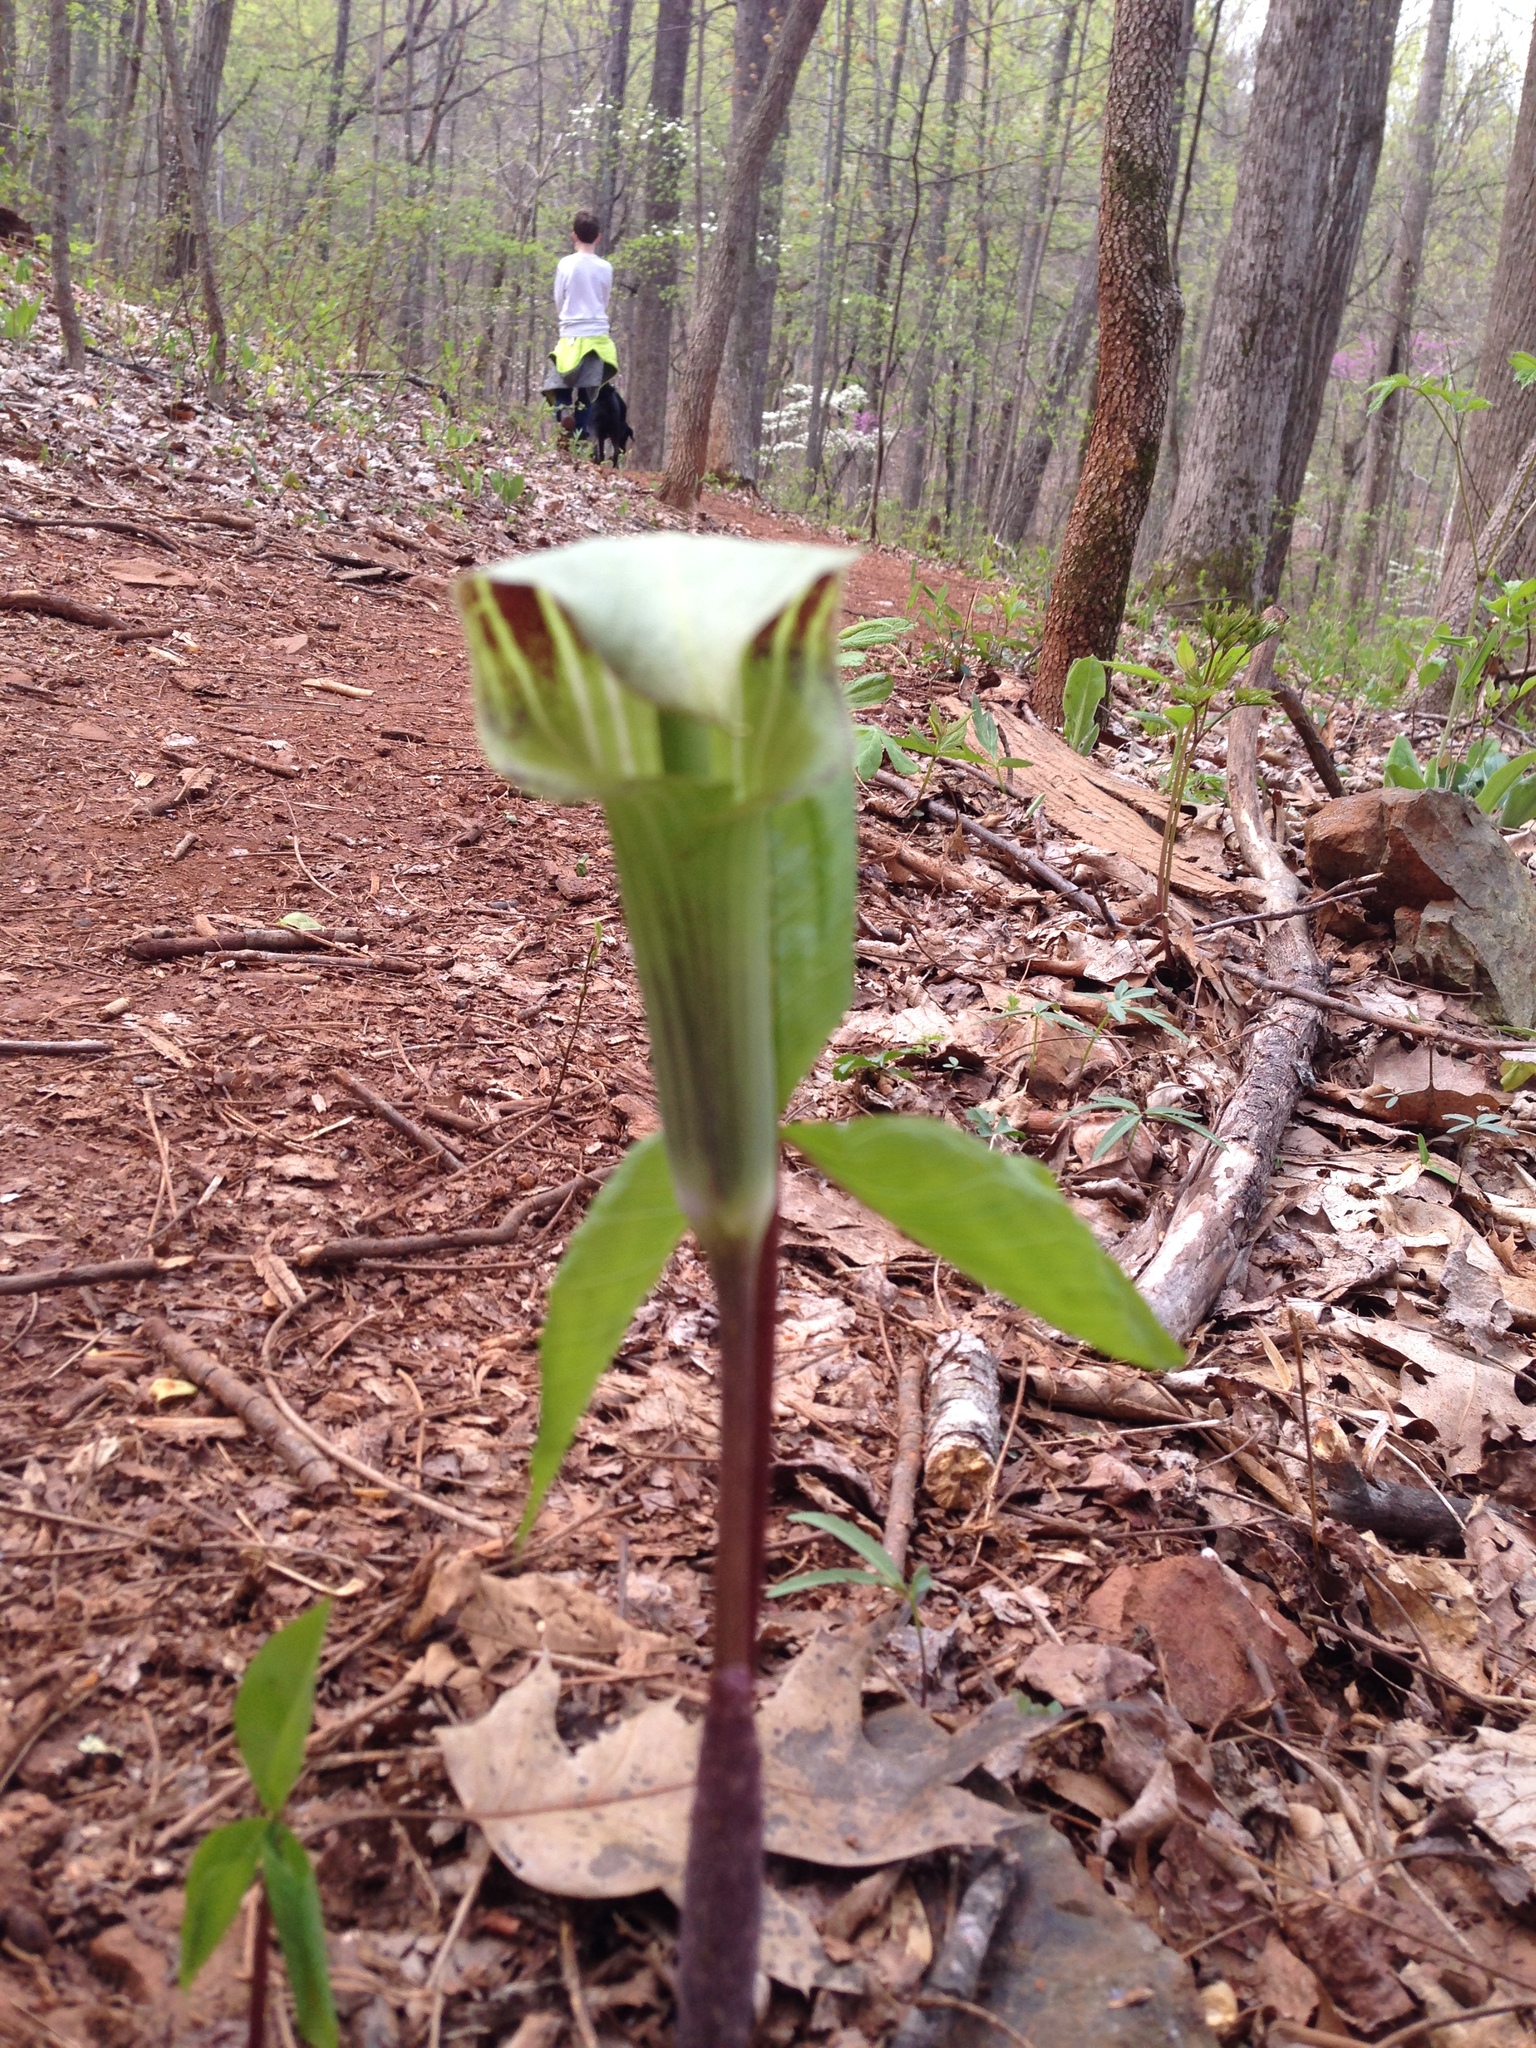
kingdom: Plantae
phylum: Tracheophyta
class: Liliopsida
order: Alismatales
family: Araceae
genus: Arisaema
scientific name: Arisaema triphyllum
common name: Jack-in-the-pulpit
